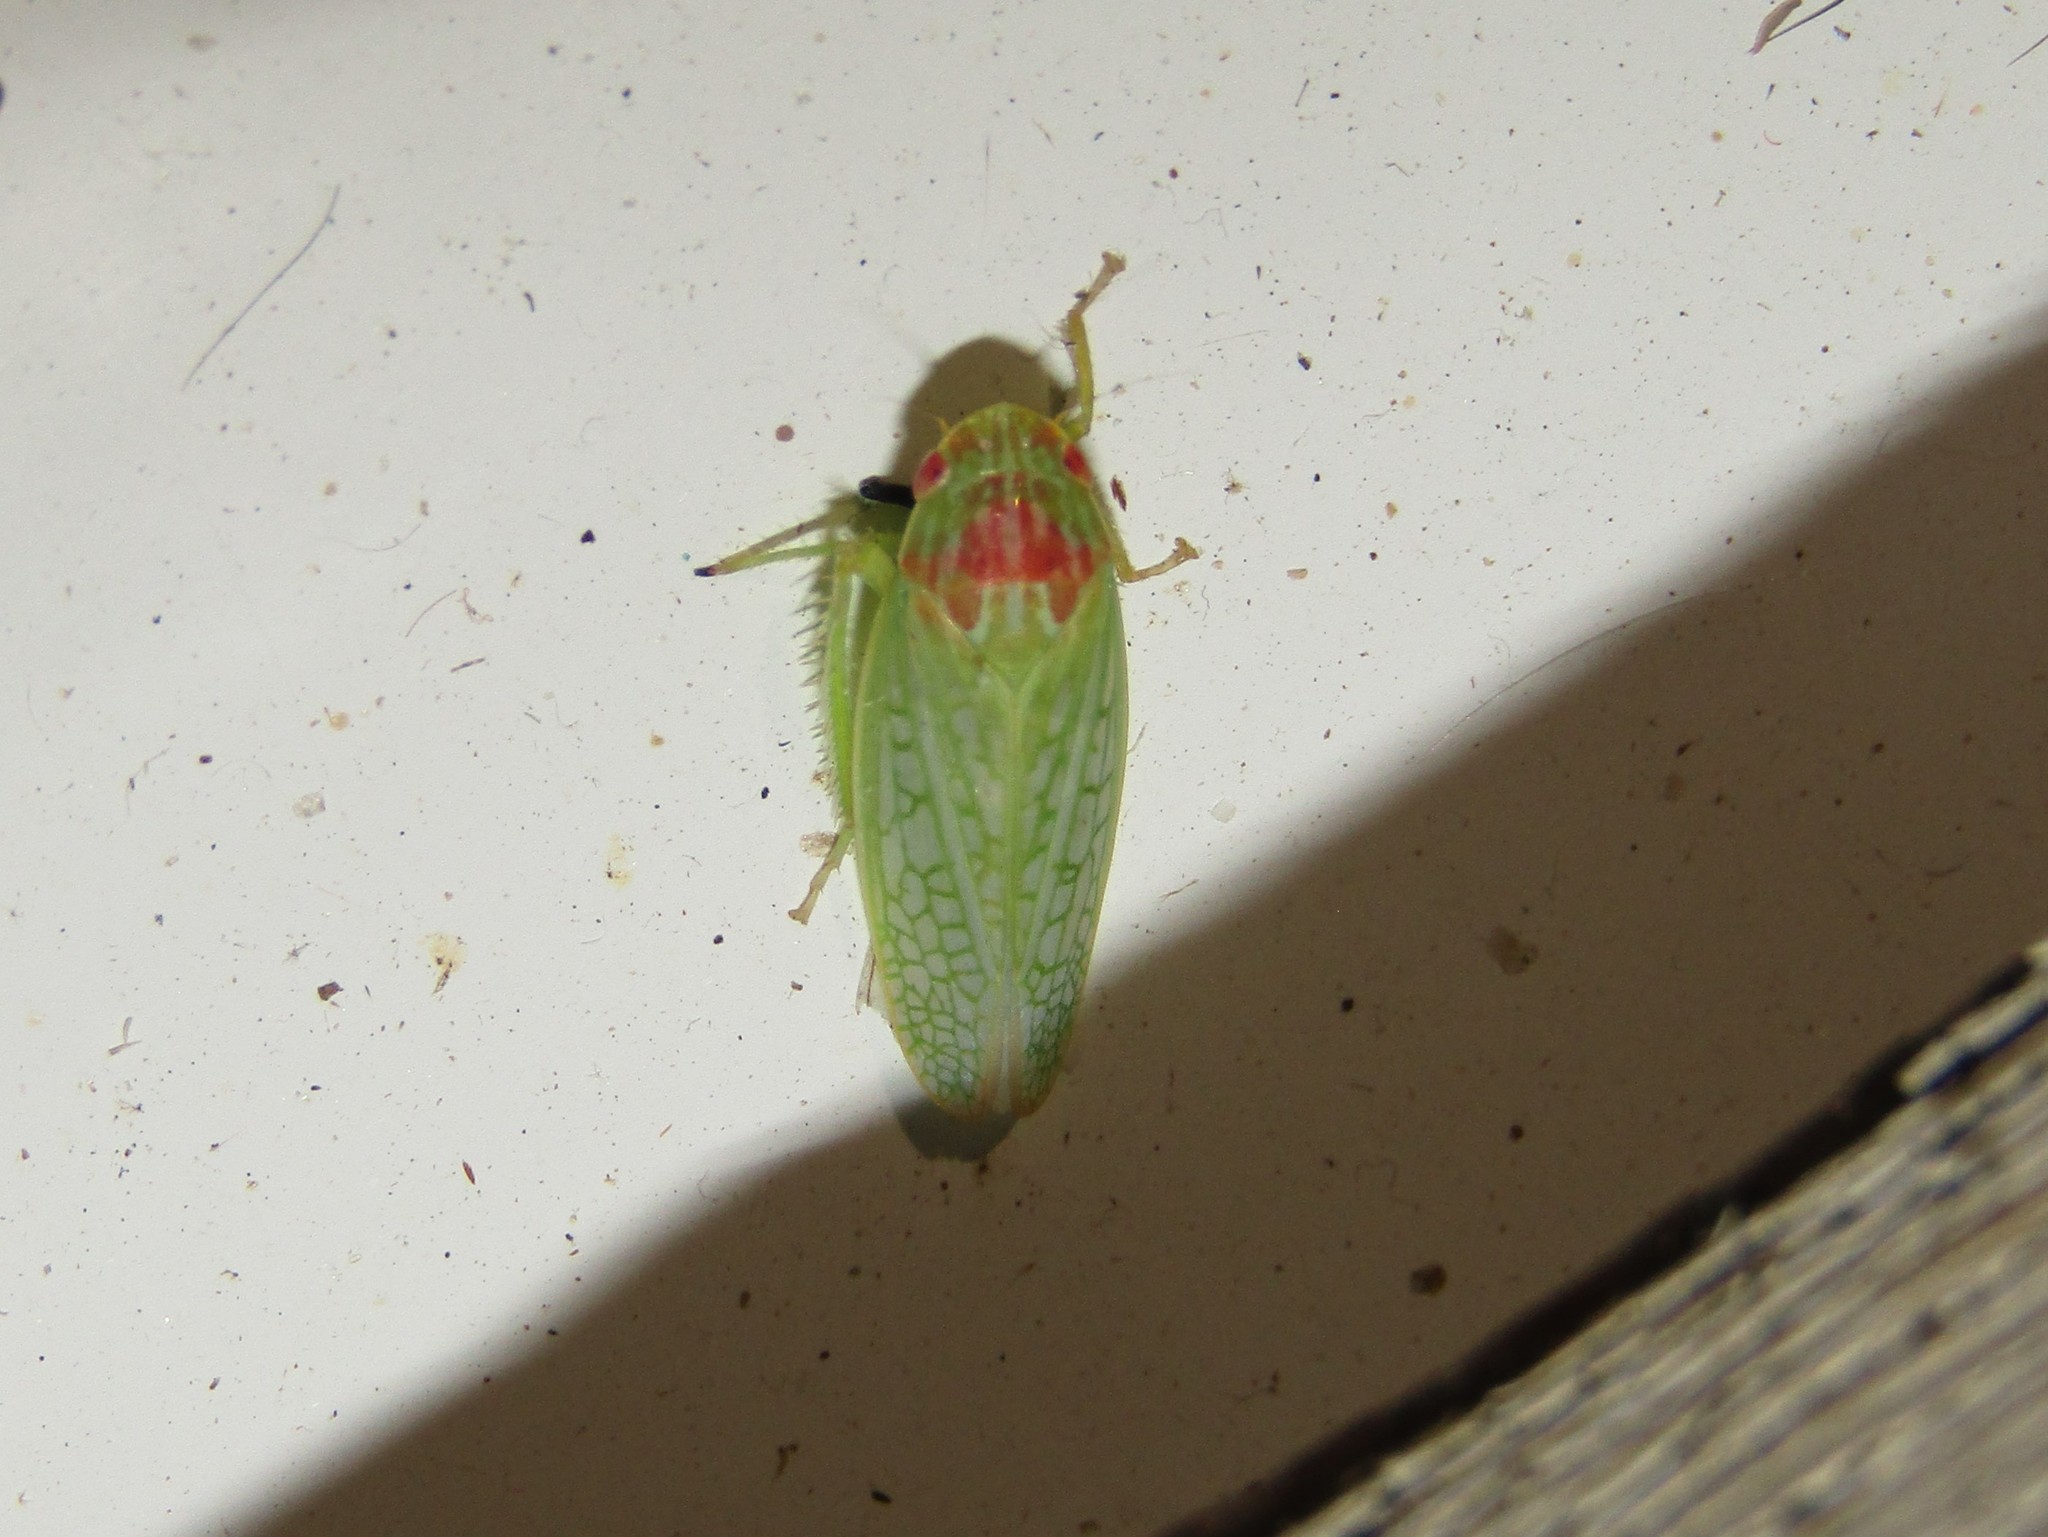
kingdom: Animalia
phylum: Arthropoda
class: Insecta
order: Hemiptera
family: Cicadellidae
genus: Gyponana
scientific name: Gyponana octolineata
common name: Eight-lined leafhopper
